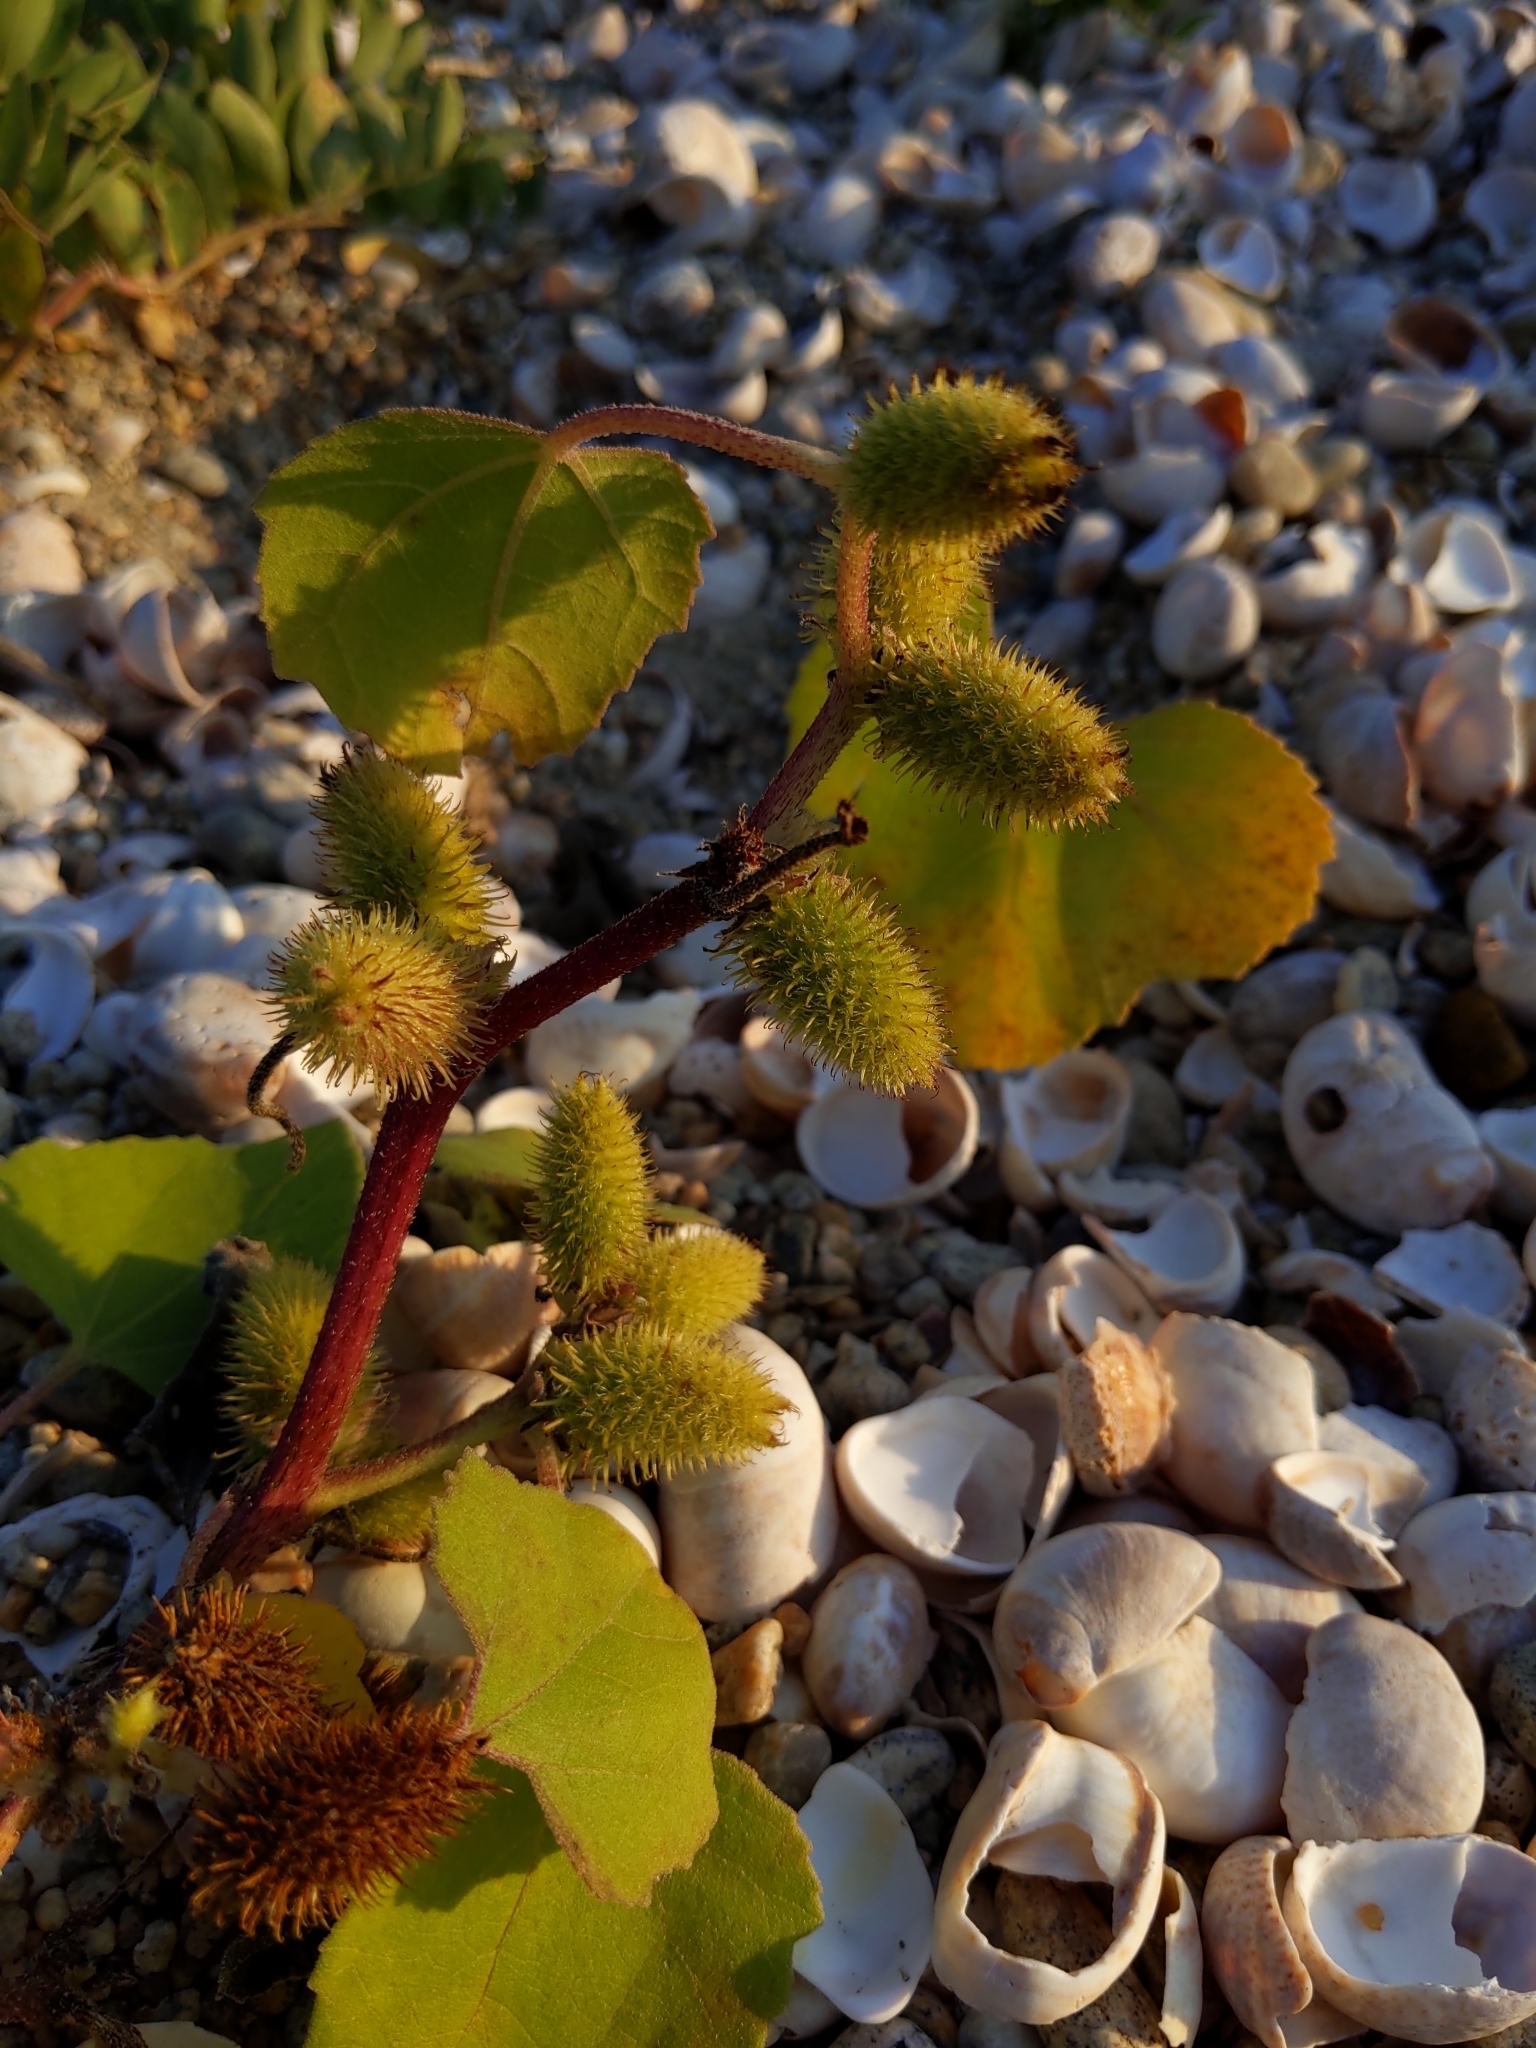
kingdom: Plantae
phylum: Tracheophyta
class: Magnoliopsida
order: Asterales
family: Asteraceae
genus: Xanthium
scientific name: Xanthium strumarium
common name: Rough cocklebur
